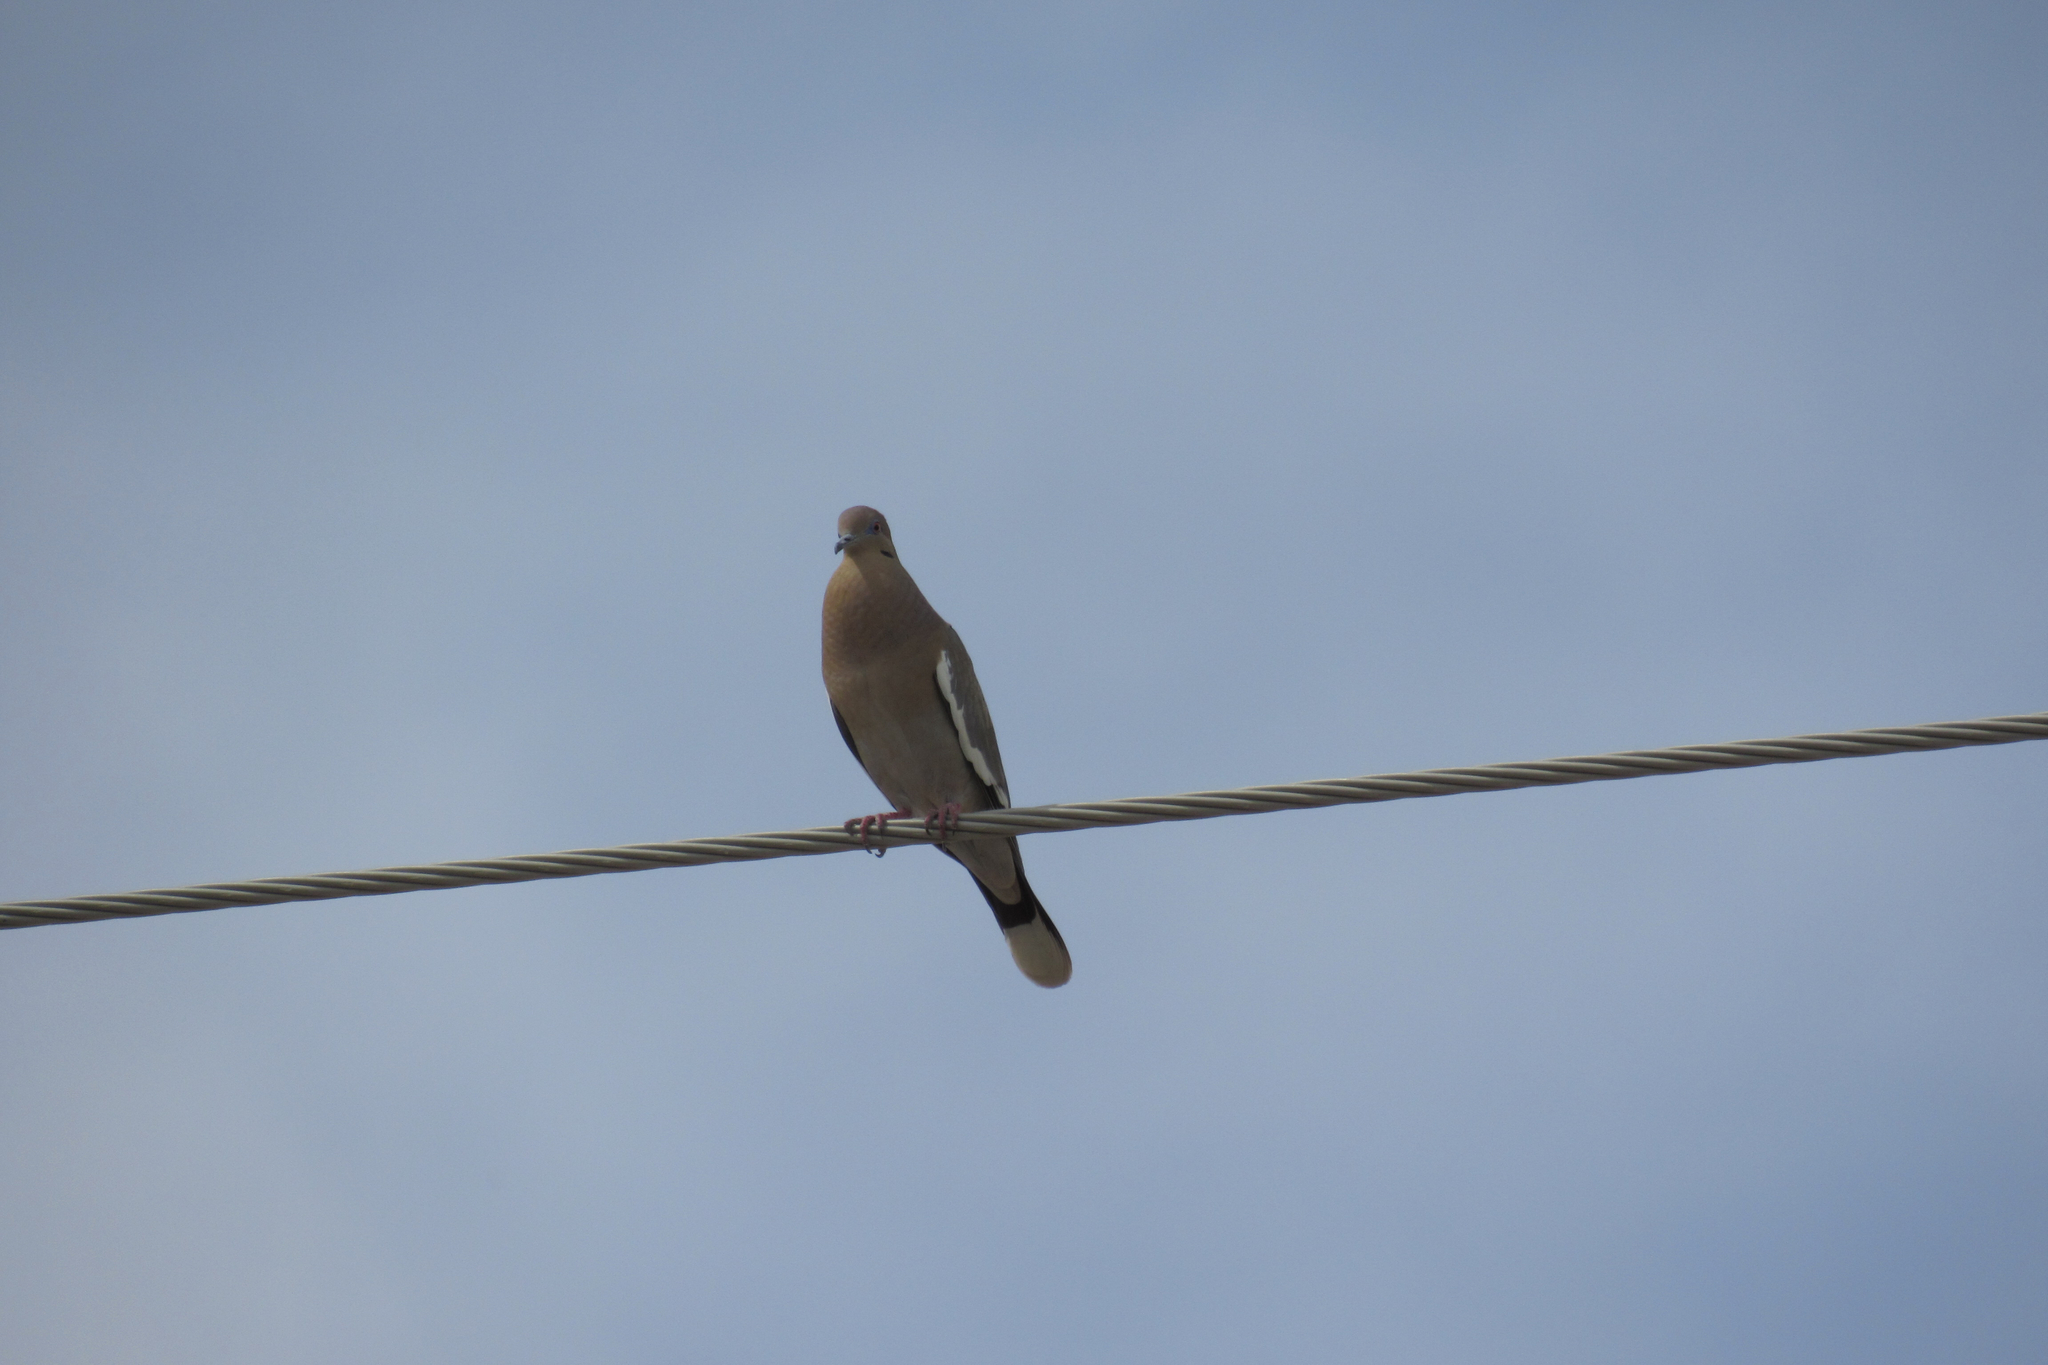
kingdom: Animalia
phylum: Chordata
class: Aves
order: Columbiformes
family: Columbidae
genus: Zenaida
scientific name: Zenaida asiatica
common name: White-winged dove
